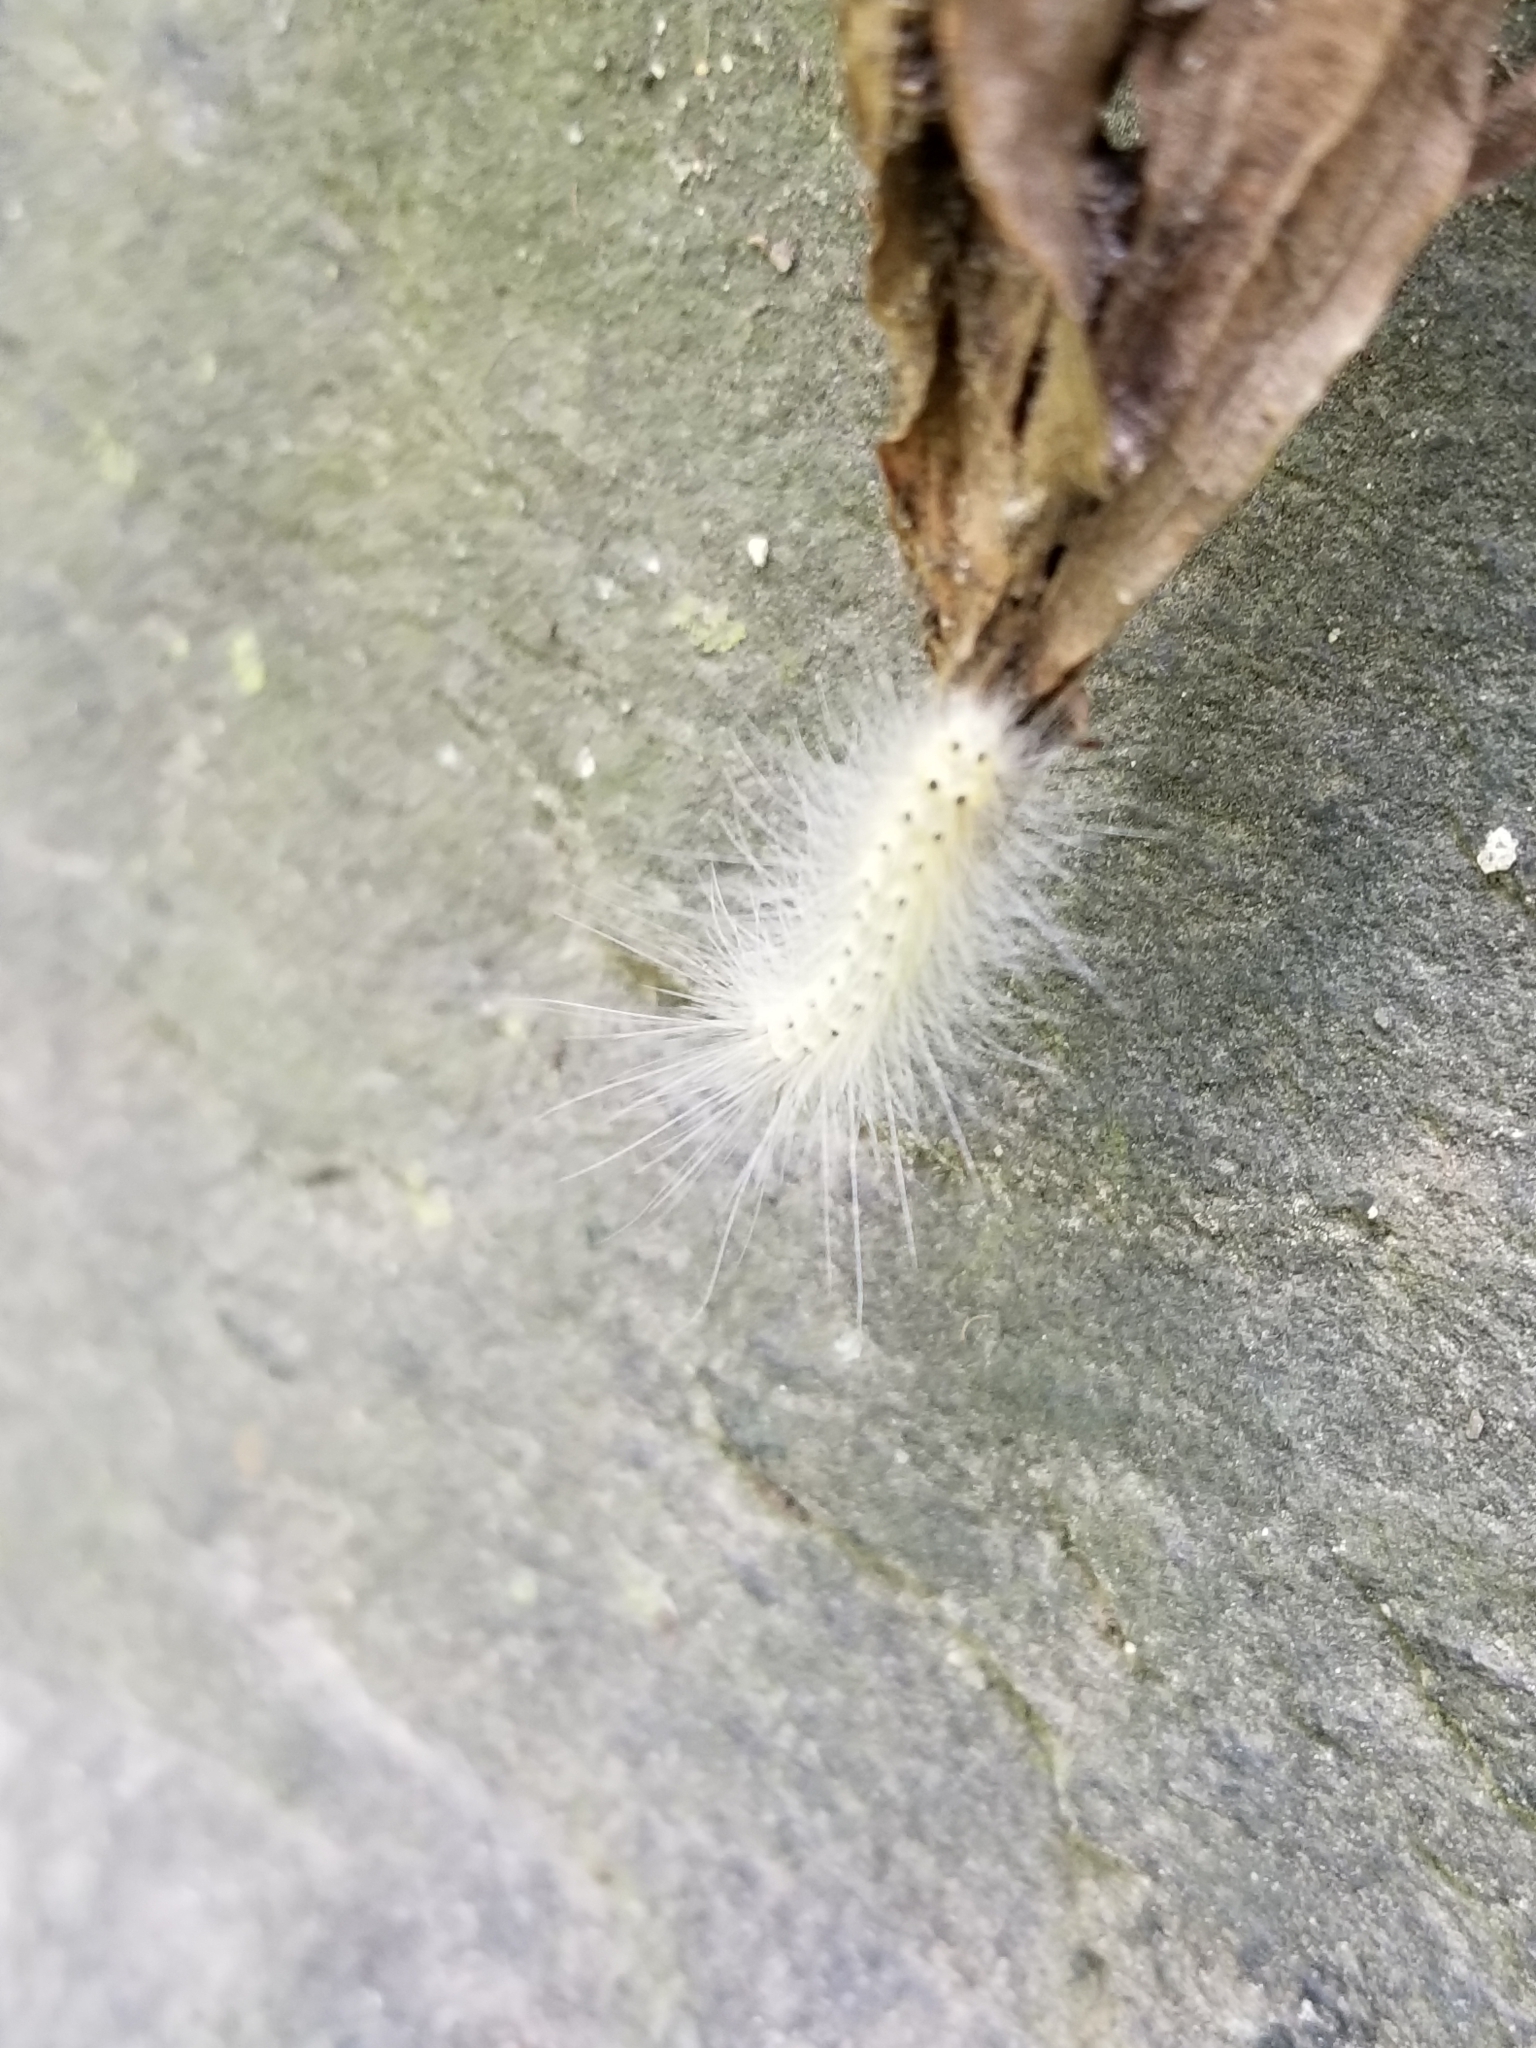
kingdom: Animalia
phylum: Arthropoda
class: Insecta
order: Lepidoptera
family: Erebidae
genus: Hyphantria
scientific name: Hyphantria cunea
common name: American white moth
